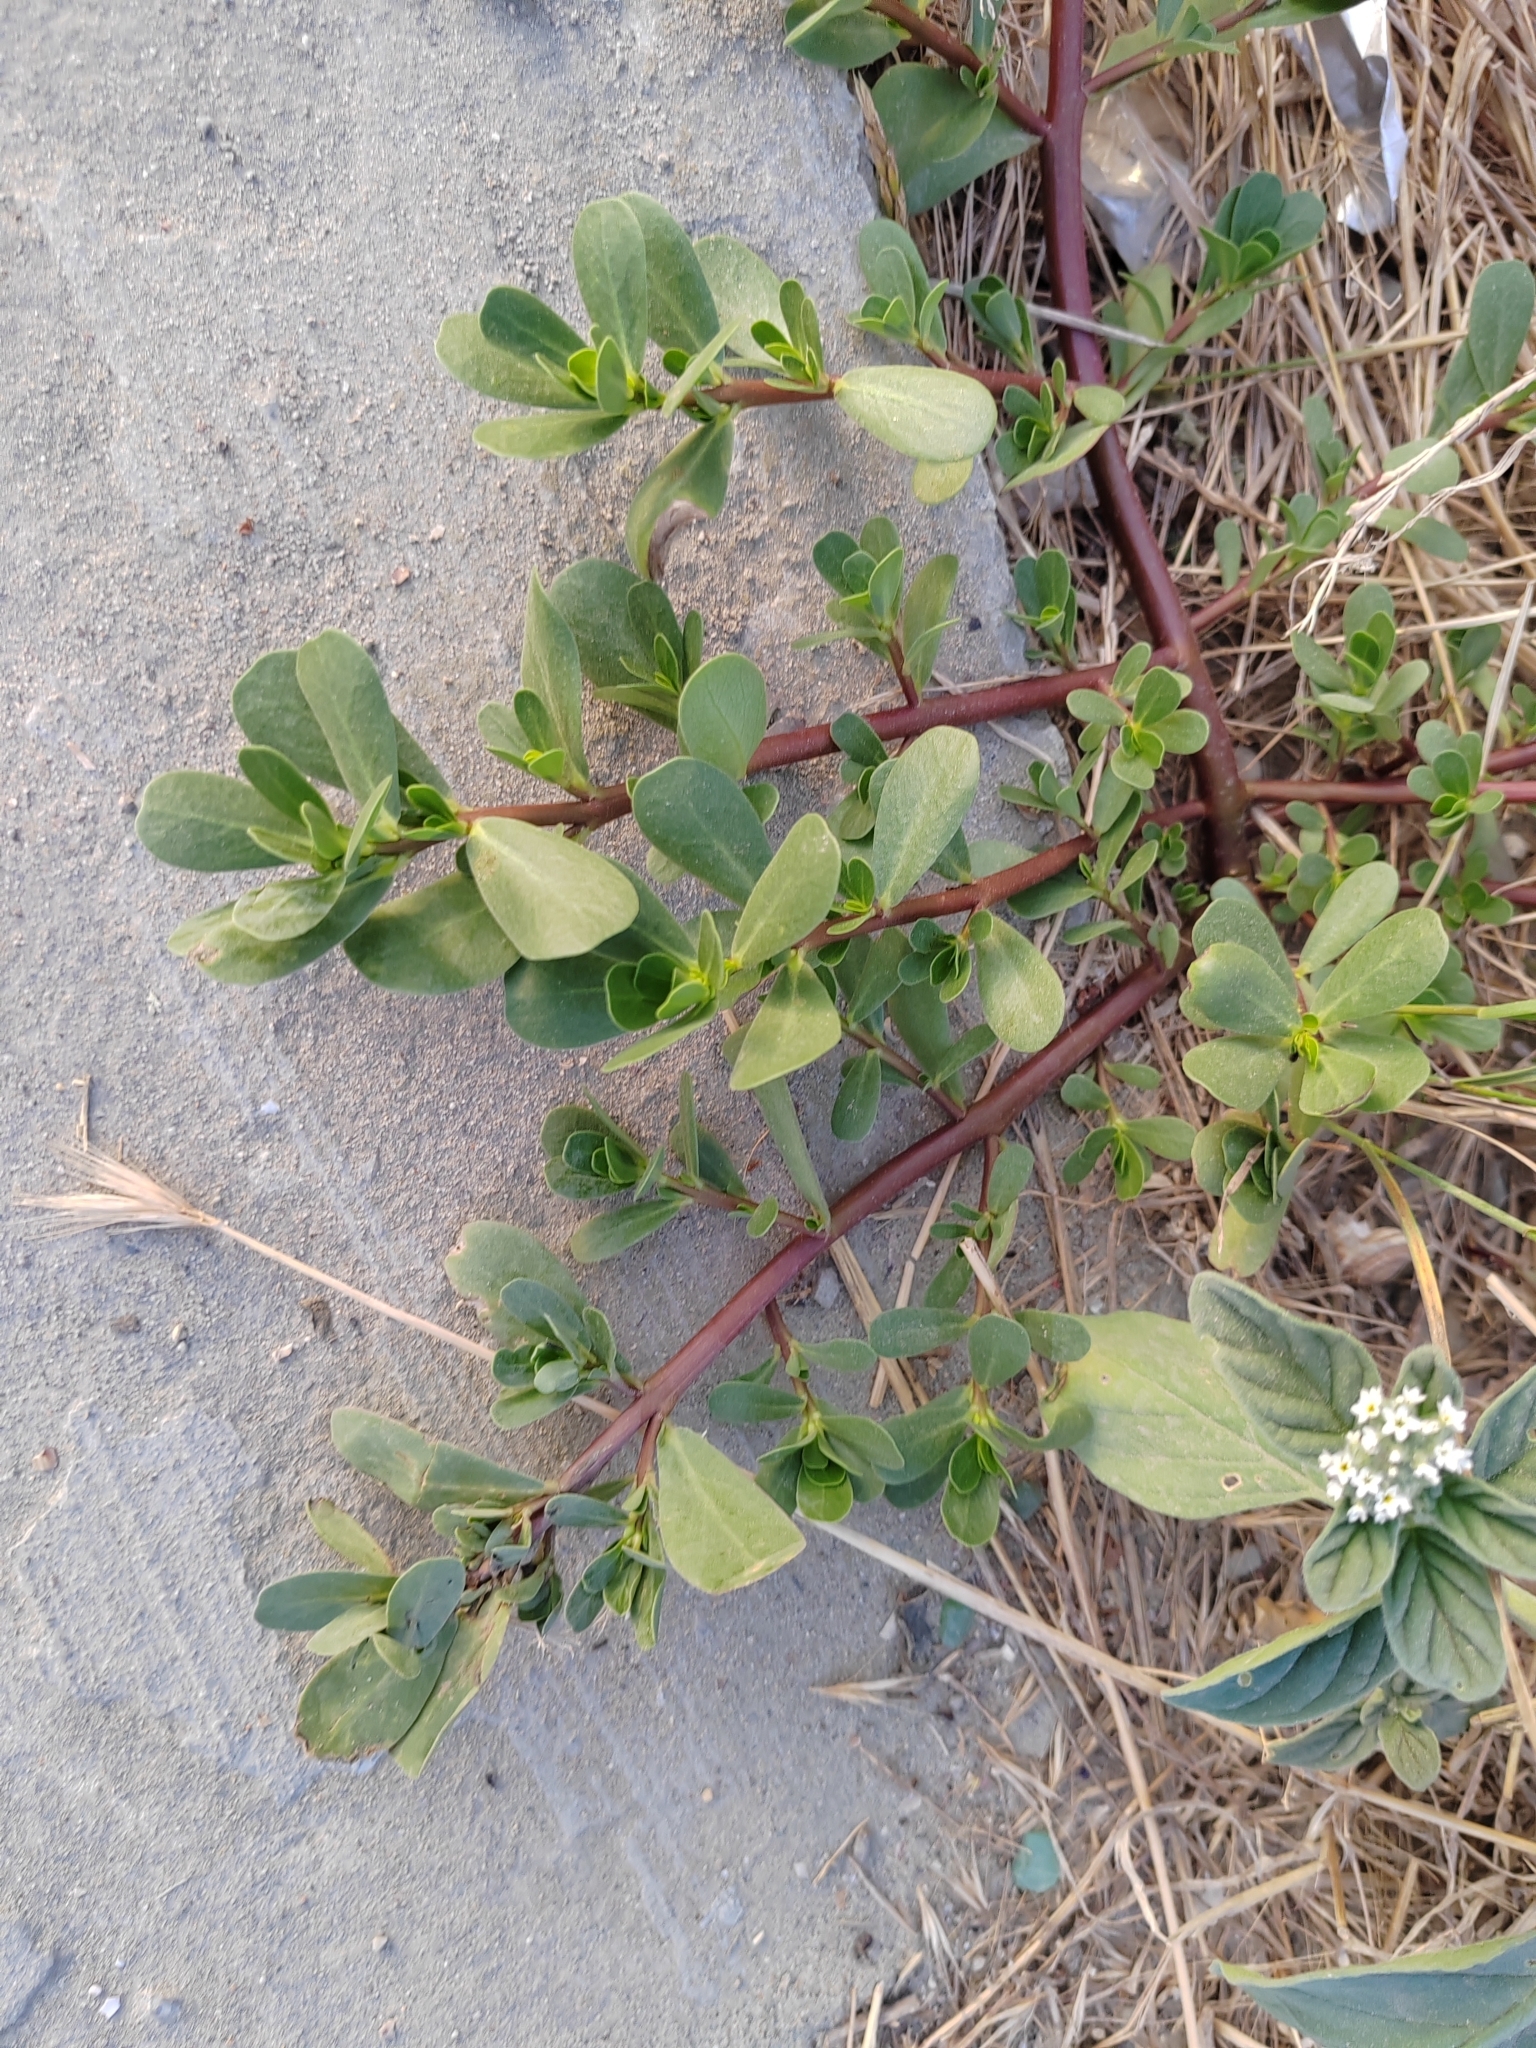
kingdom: Plantae
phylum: Tracheophyta
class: Magnoliopsida
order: Caryophyllales
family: Portulacaceae
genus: Portulaca
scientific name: Portulaca oleracea
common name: Common purslane
